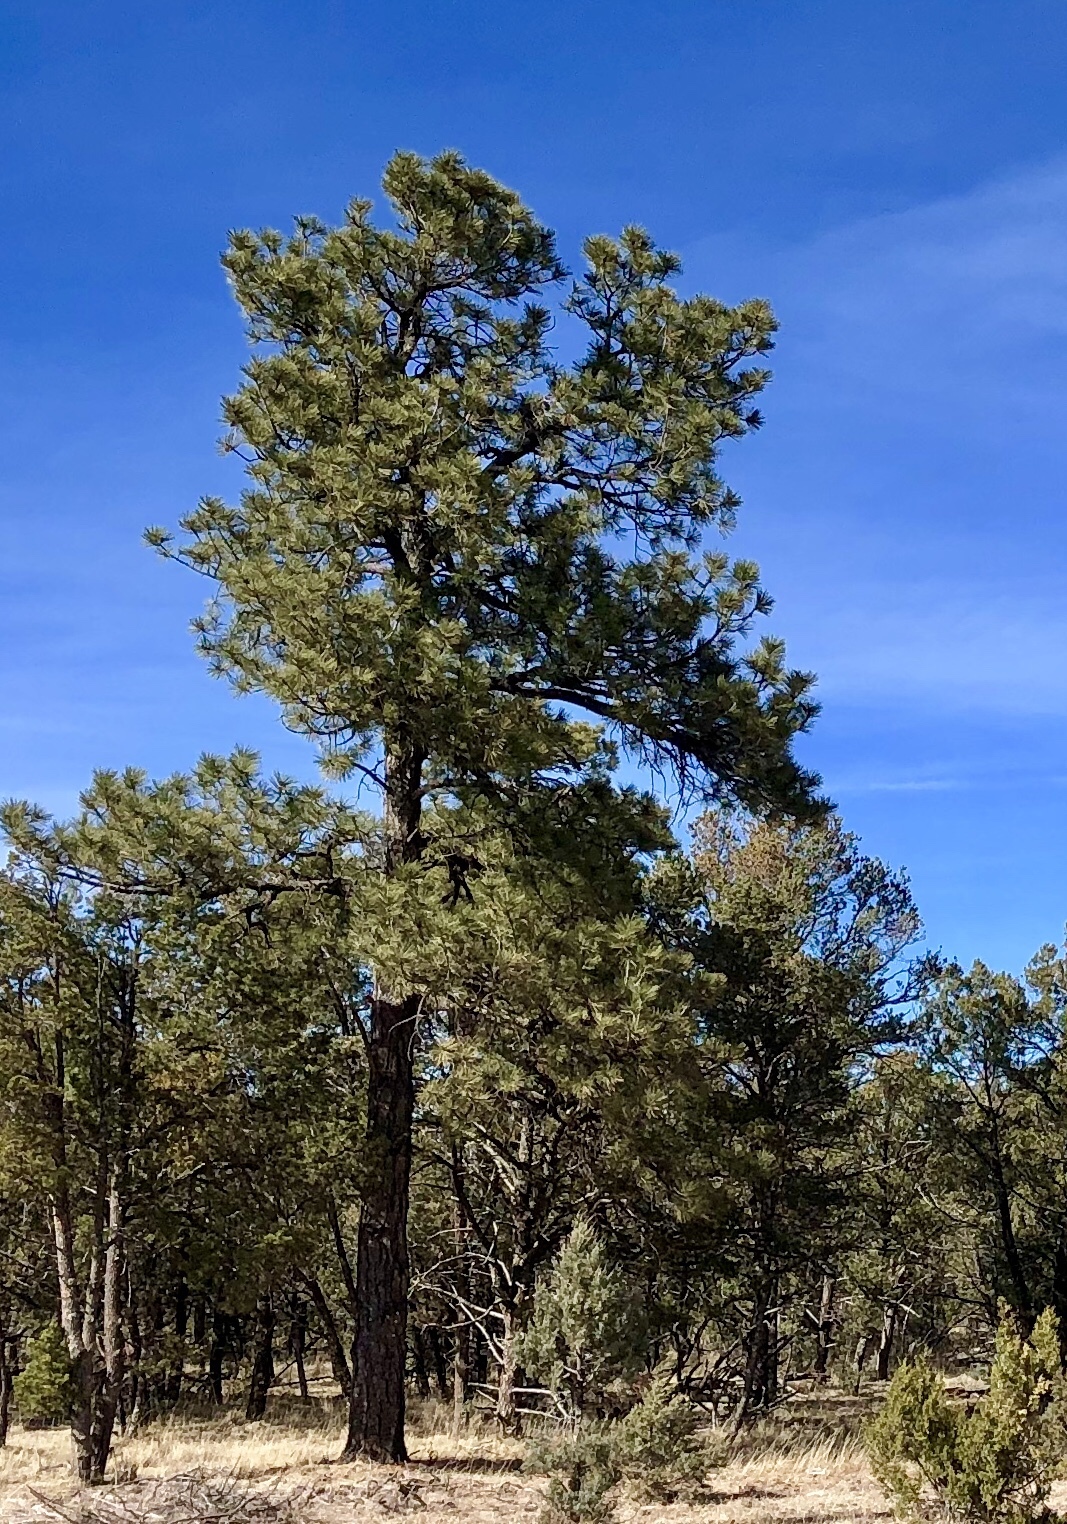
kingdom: Plantae
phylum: Tracheophyta
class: Pinopsida
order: Pinales
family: Pinaceae
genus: Pinus
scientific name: Pinus ponderosa
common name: Western yellow-pine
